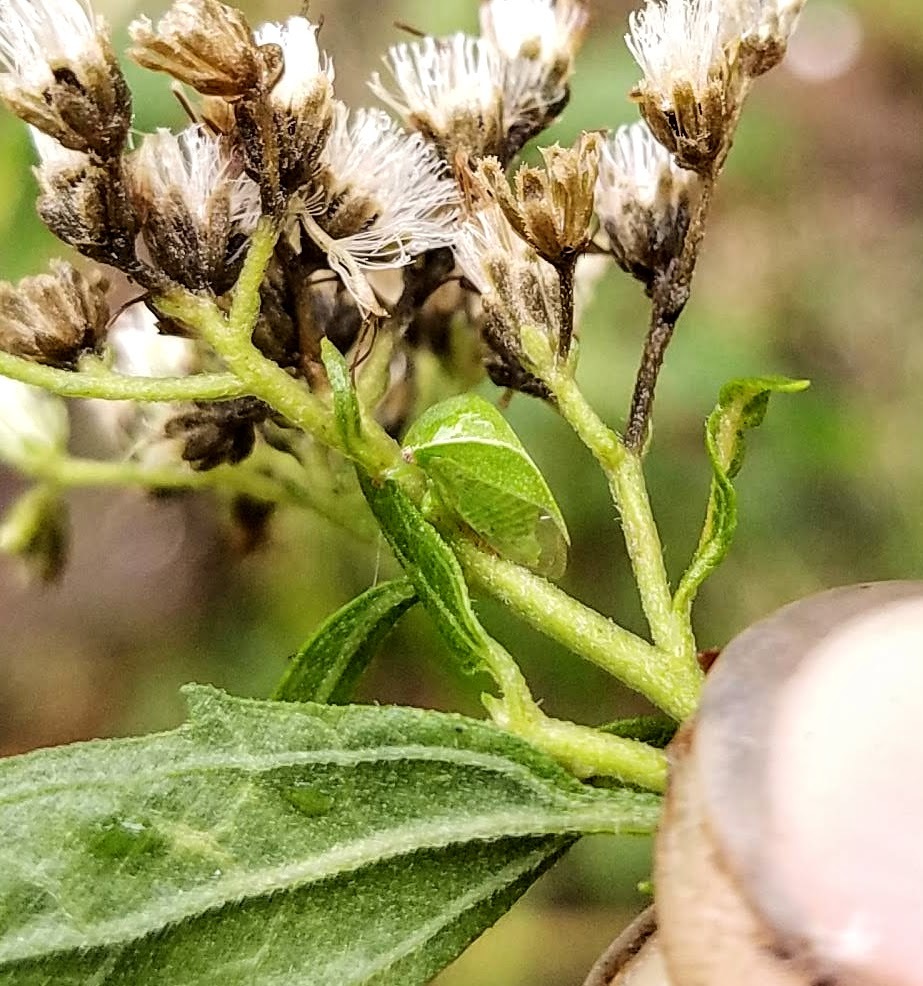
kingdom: Animalia
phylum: Arthropoda
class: Insecta
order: Hemiptera
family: Membracidae
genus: Spissistilus
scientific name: Spissistilus festina
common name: Membracid bug
